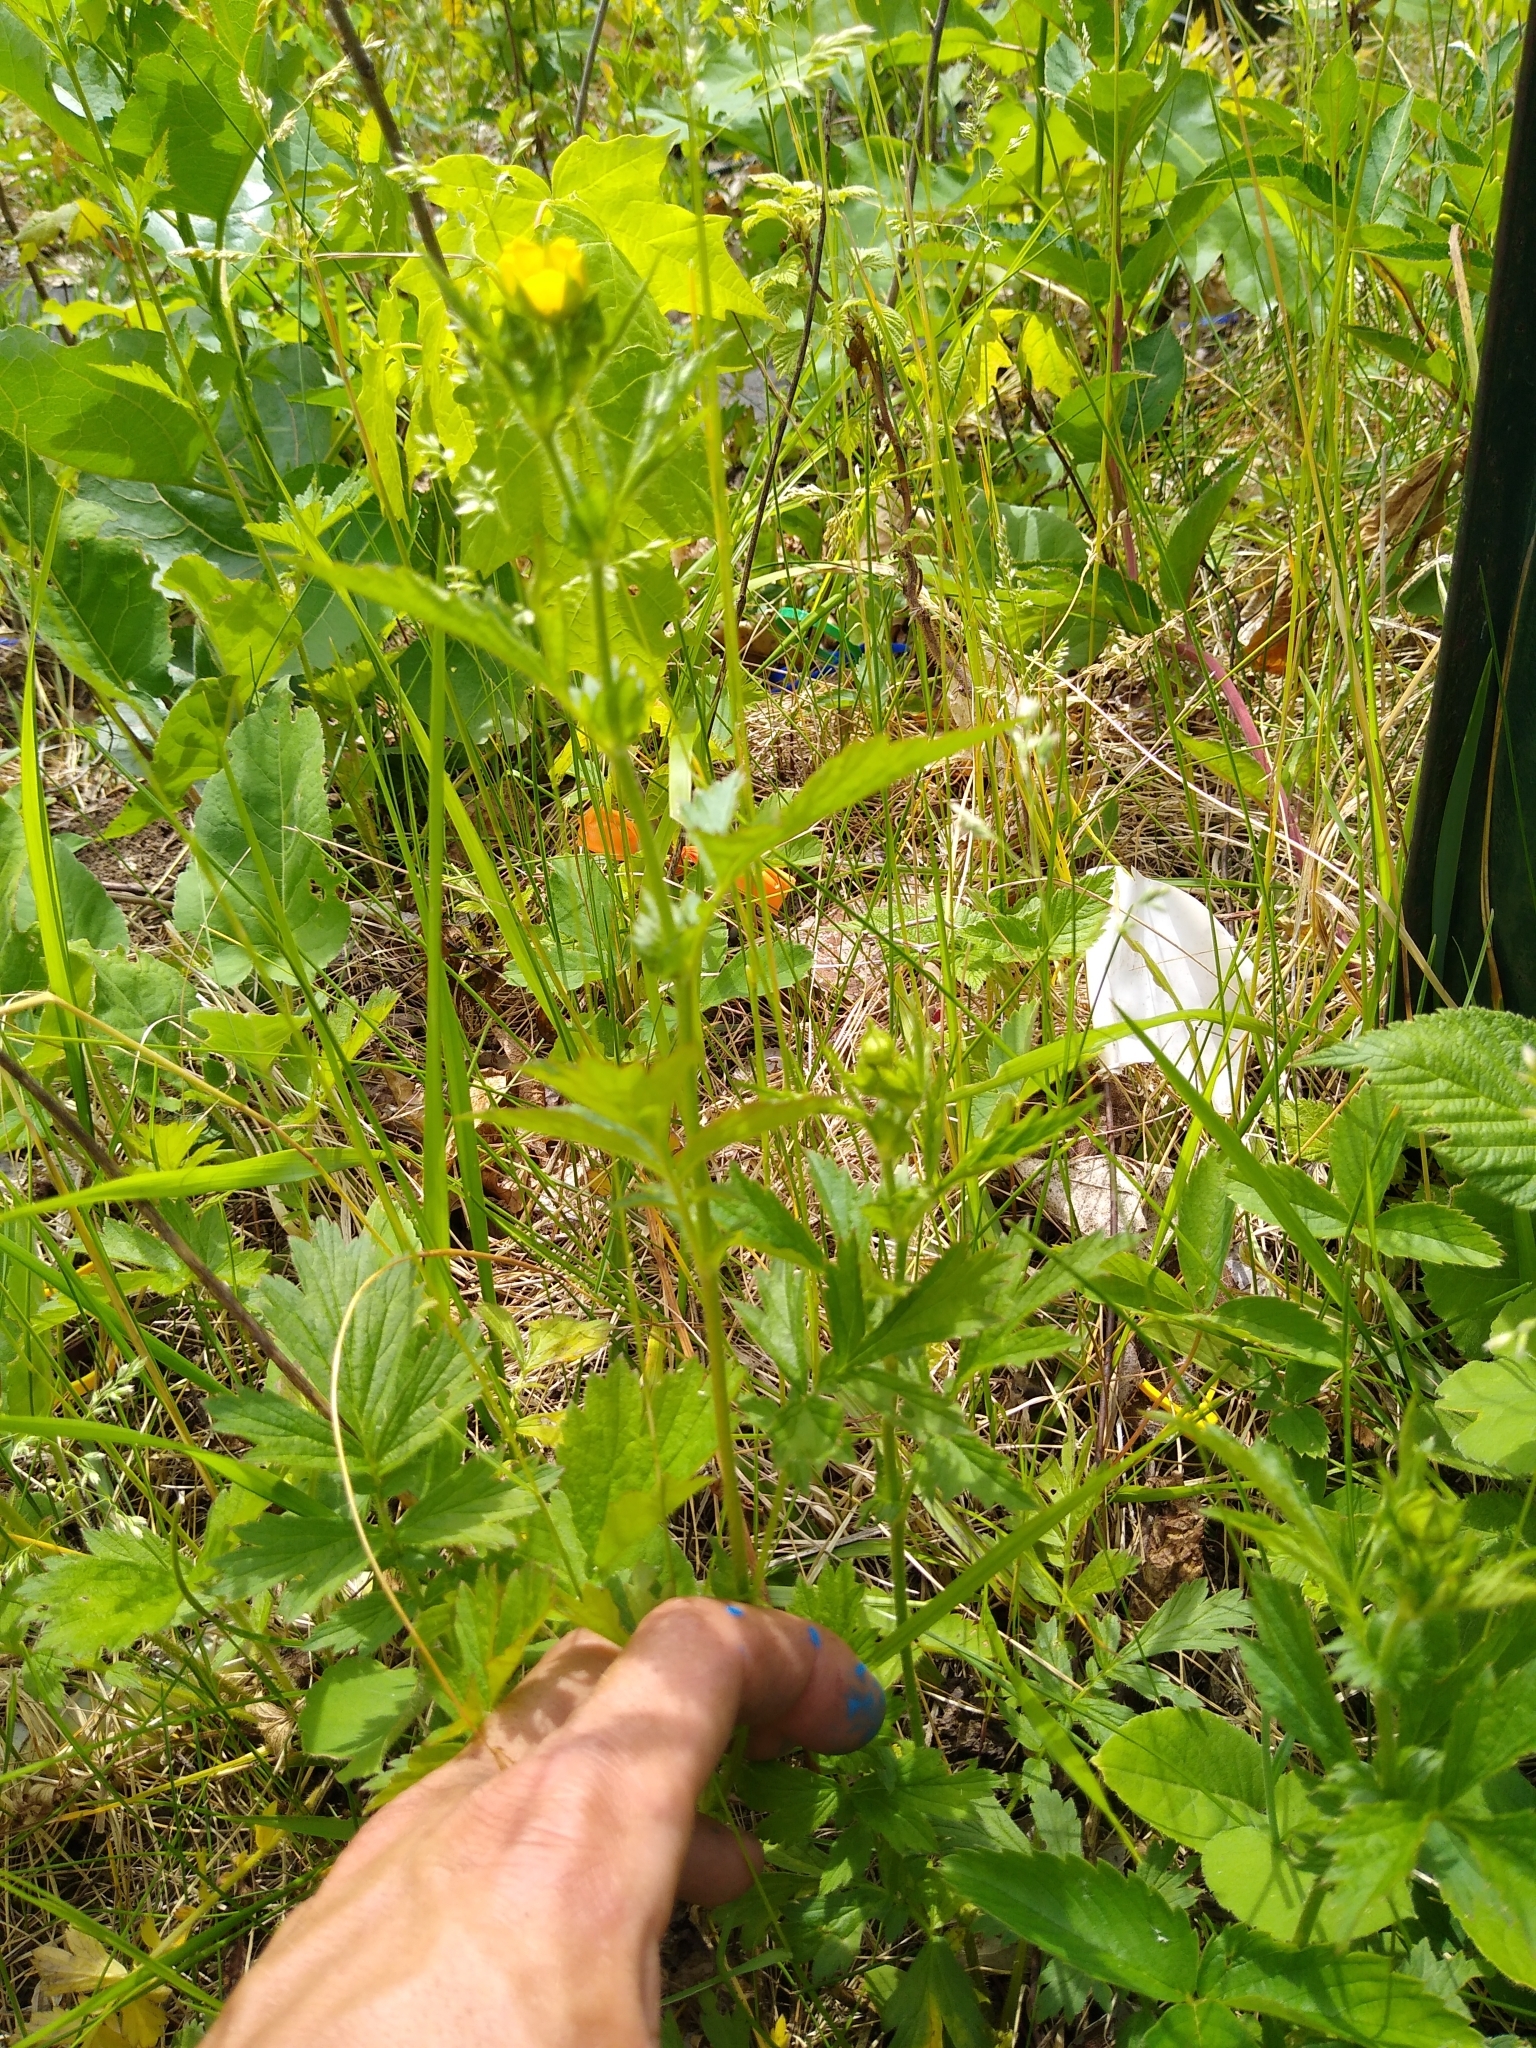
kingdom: Plantae
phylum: Tracheophyta
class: Magnoliopsida
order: Rosales
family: Rosaceae
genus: Geum
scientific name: Geum aleppicum
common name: Yellow avens
